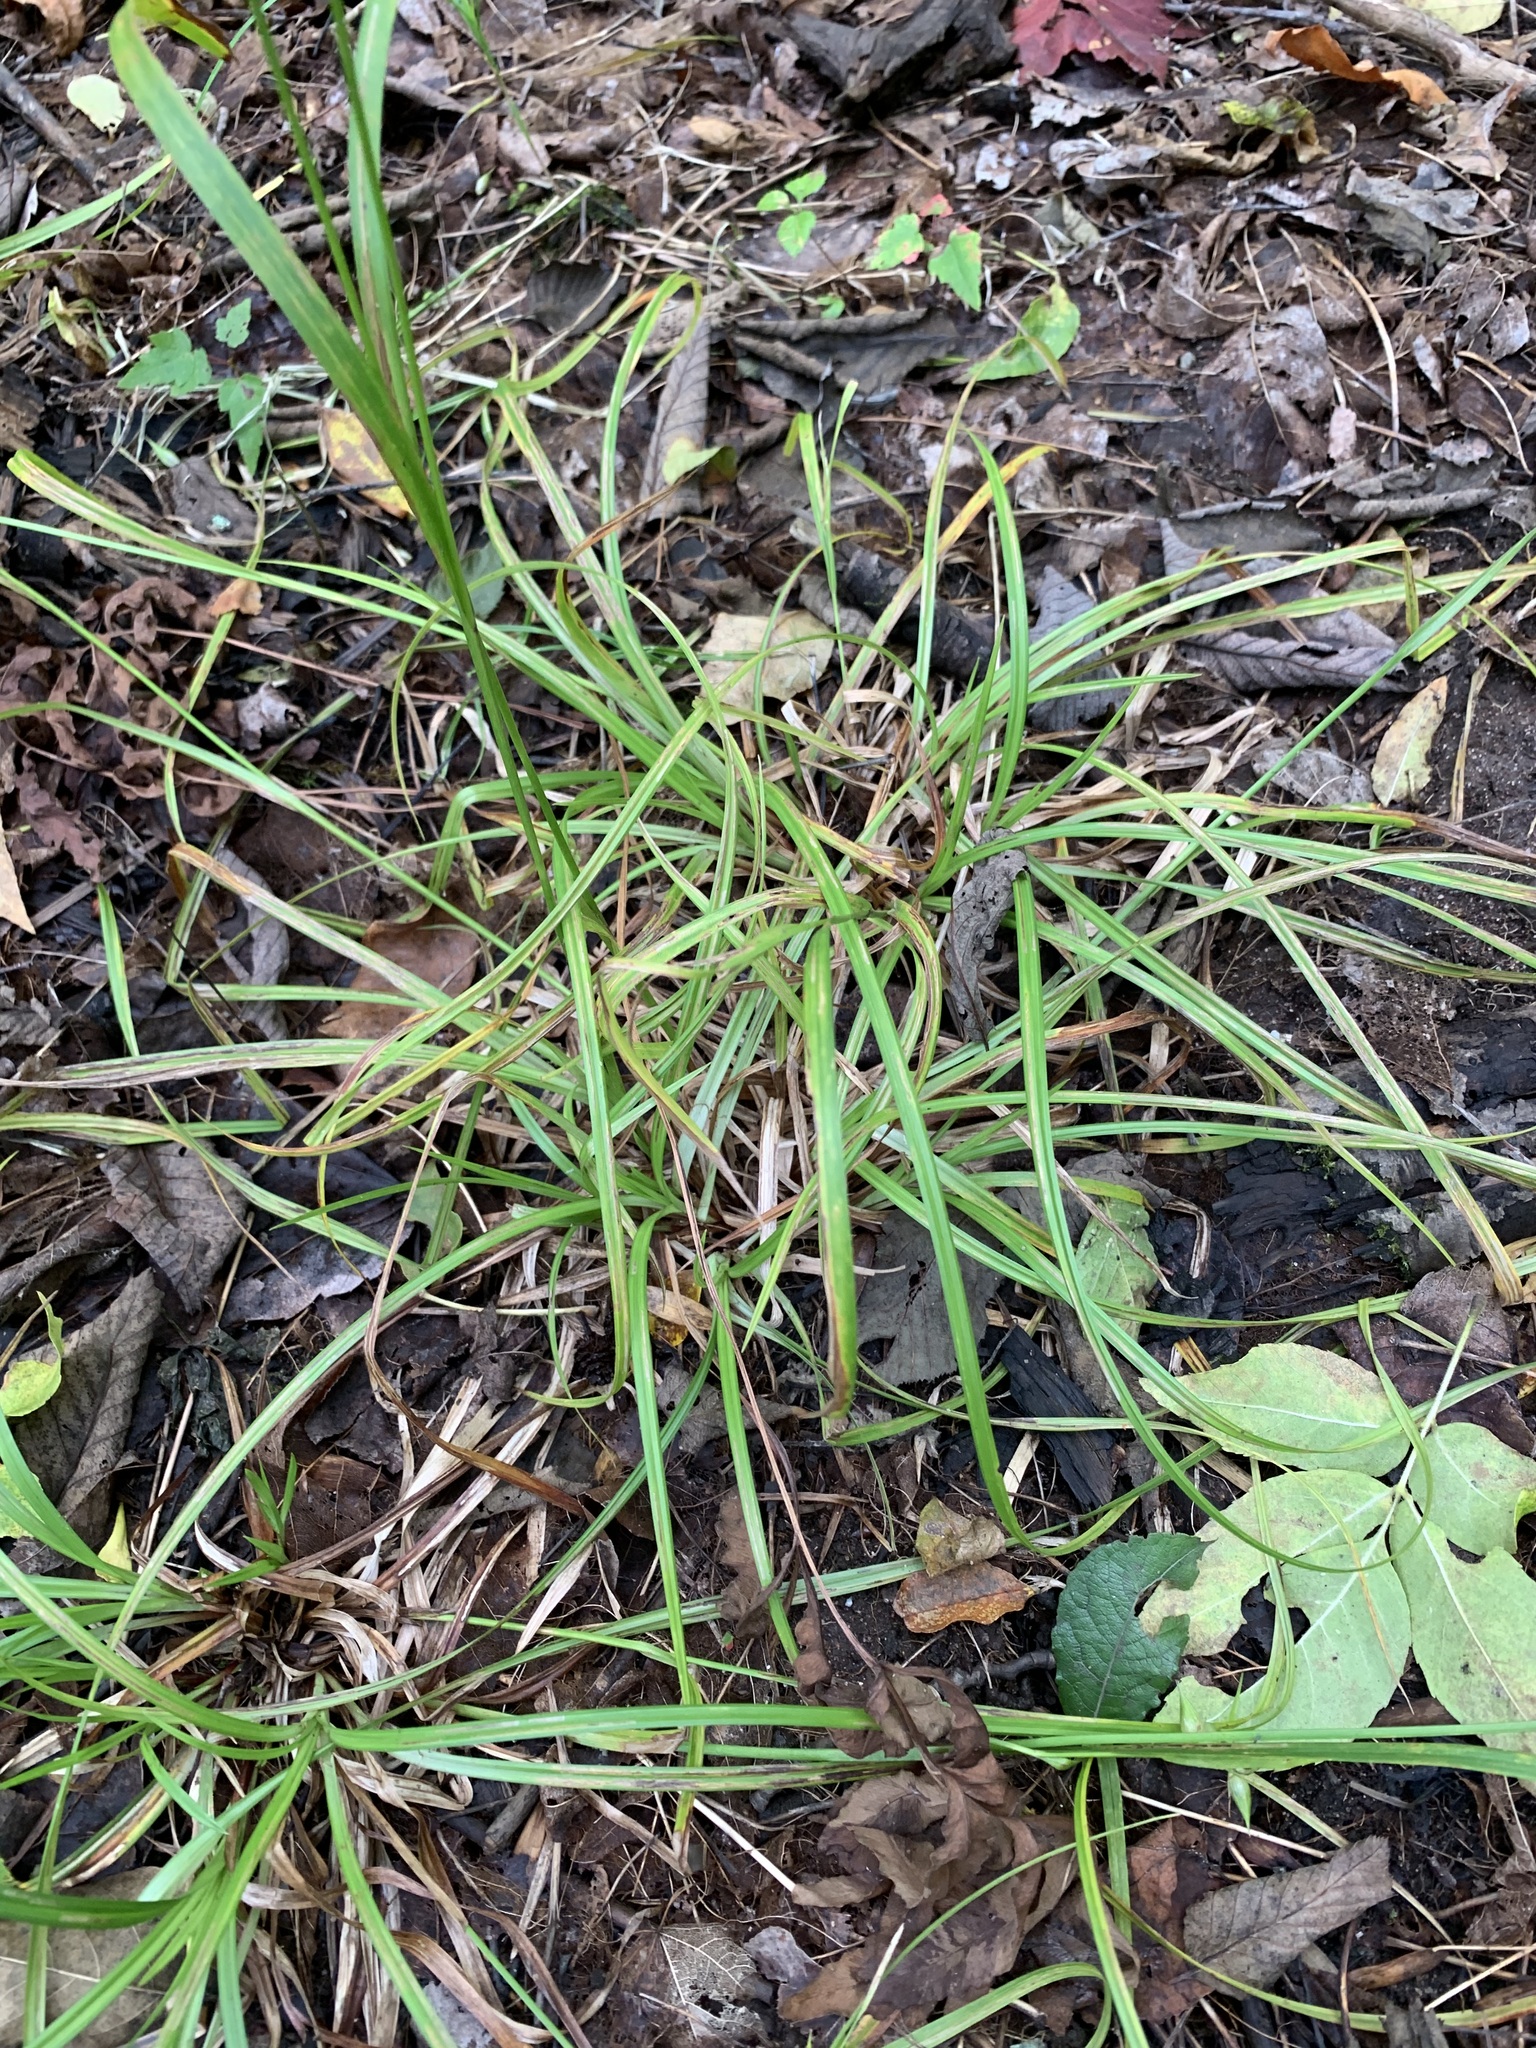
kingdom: Plantae
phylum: Tracheophyta
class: Liliopsida
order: Poales
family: Cyperaceae
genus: Carex
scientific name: Carex intumescens
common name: Greater bladder sedge
